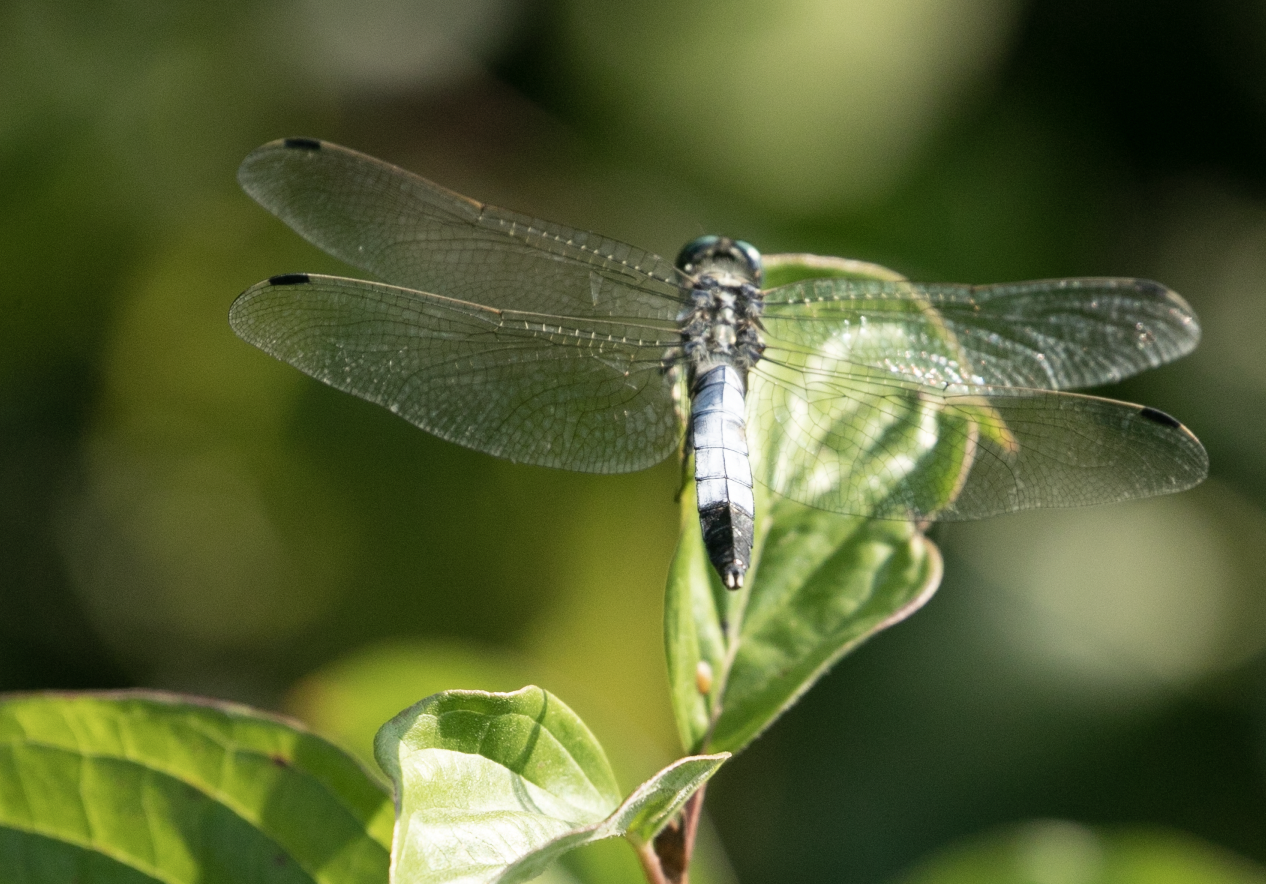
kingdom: Animalia
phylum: Arthropoda
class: Insecta
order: Odonata
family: Libellulidae
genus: Orthetrum
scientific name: Orthetrum albistylum
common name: White-tailed skimmer
